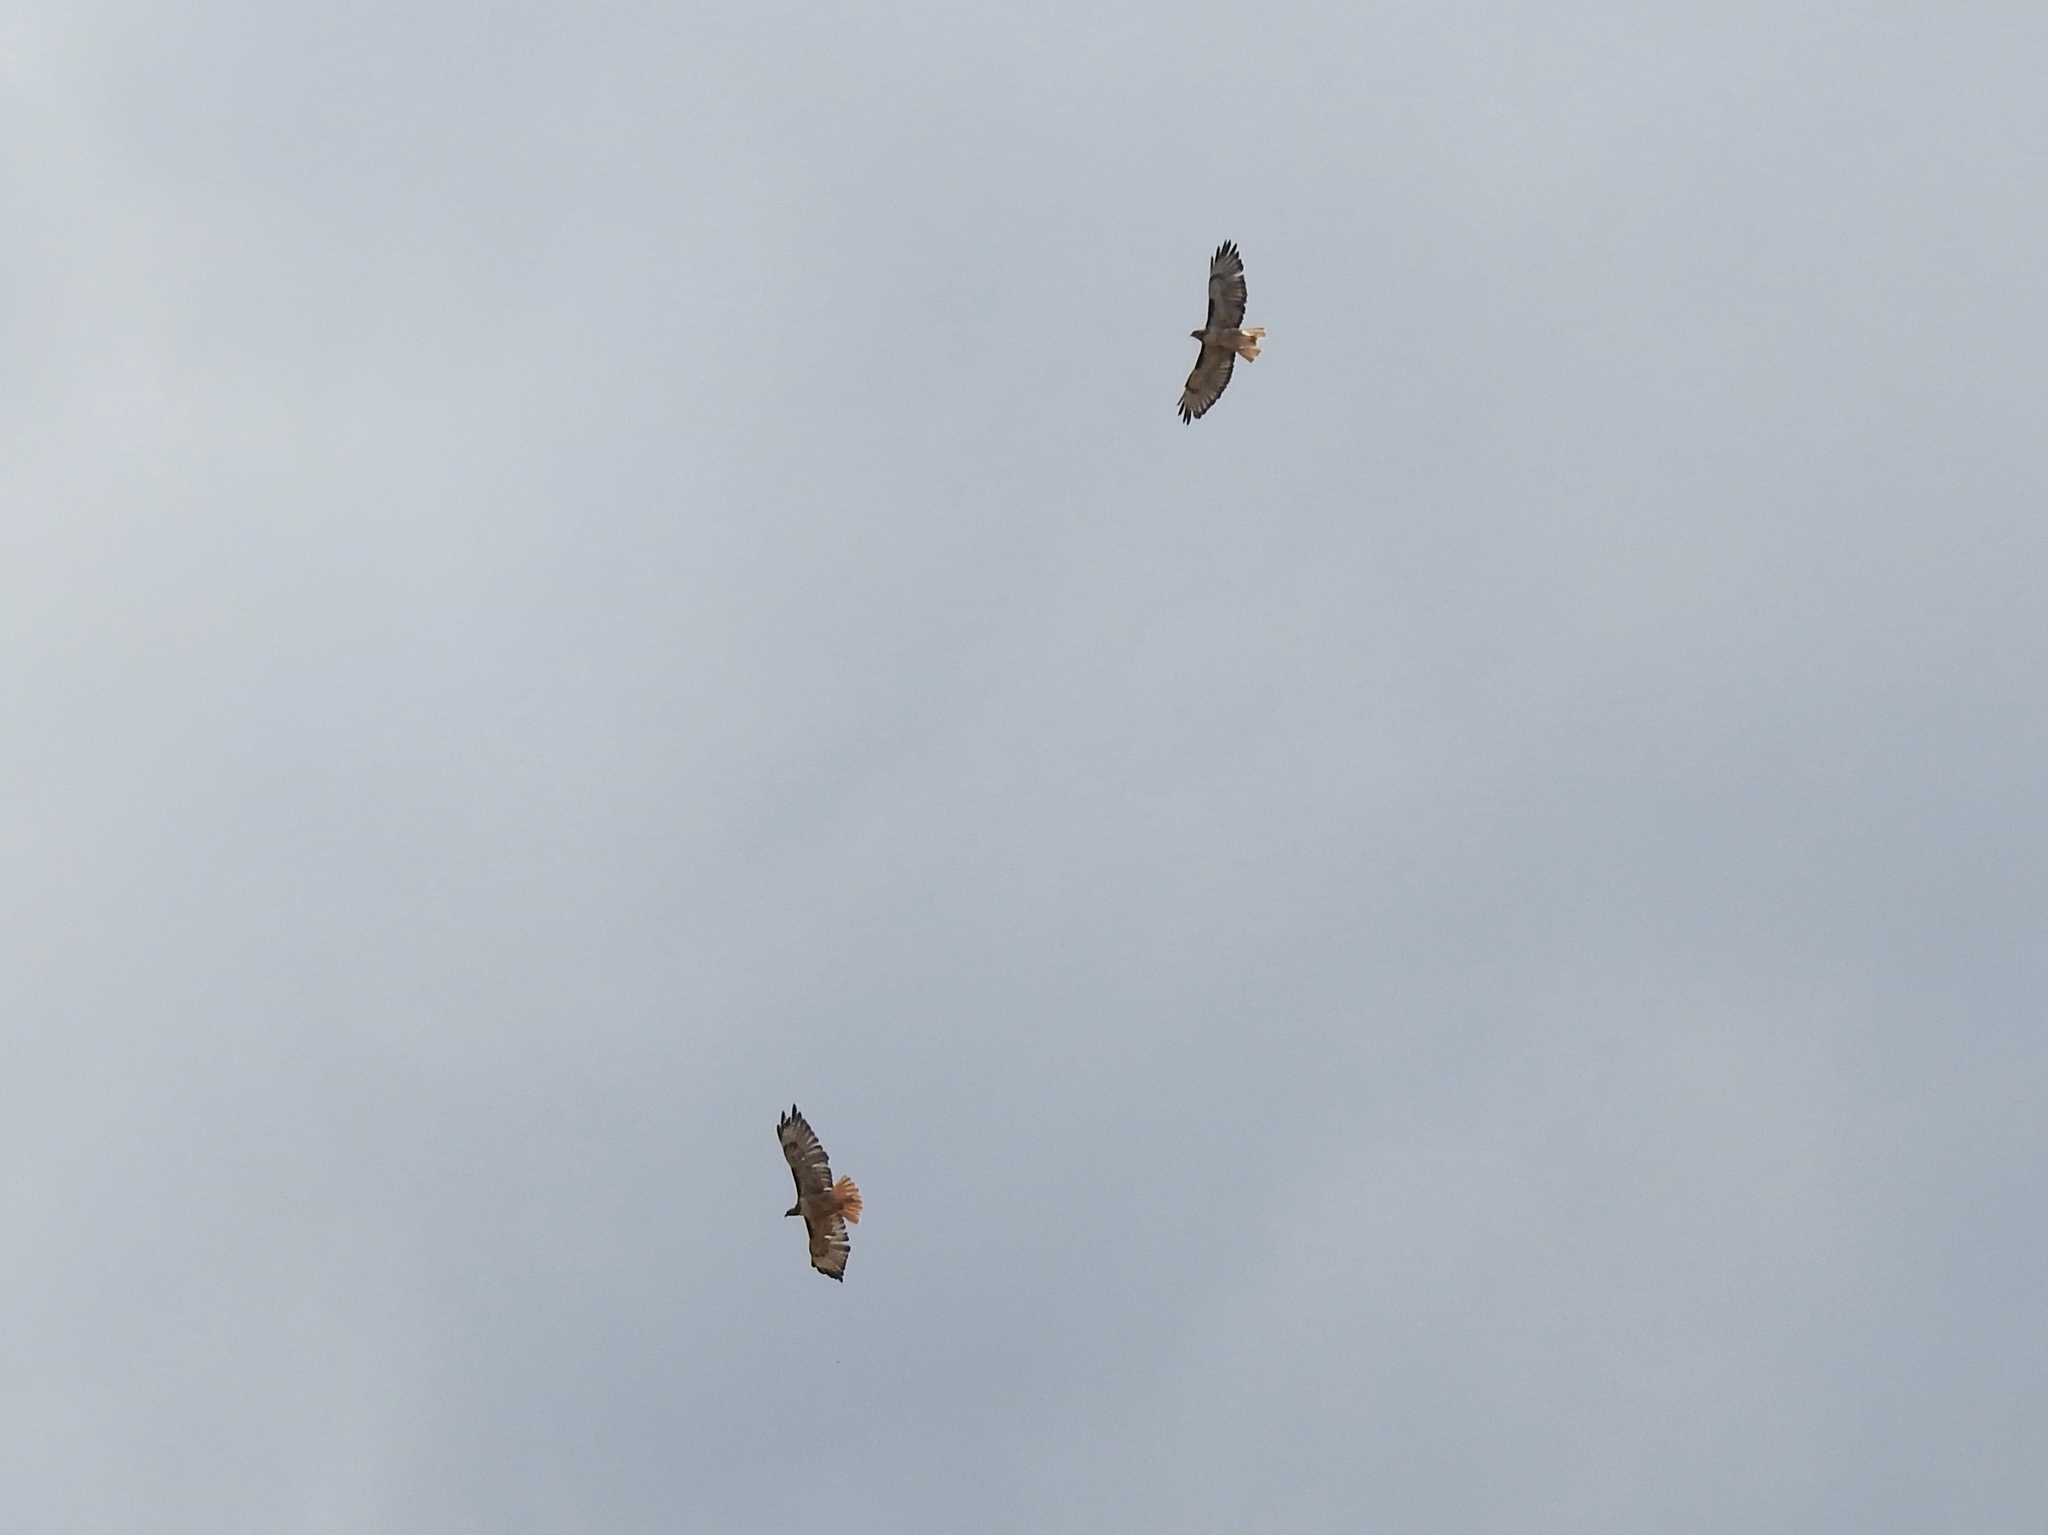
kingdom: Animalia
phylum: Chordata
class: Aves
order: Accipitriformes
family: Accipitridae
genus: Buteo
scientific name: Buteo jamaicensis
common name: Red-tailed hawk
